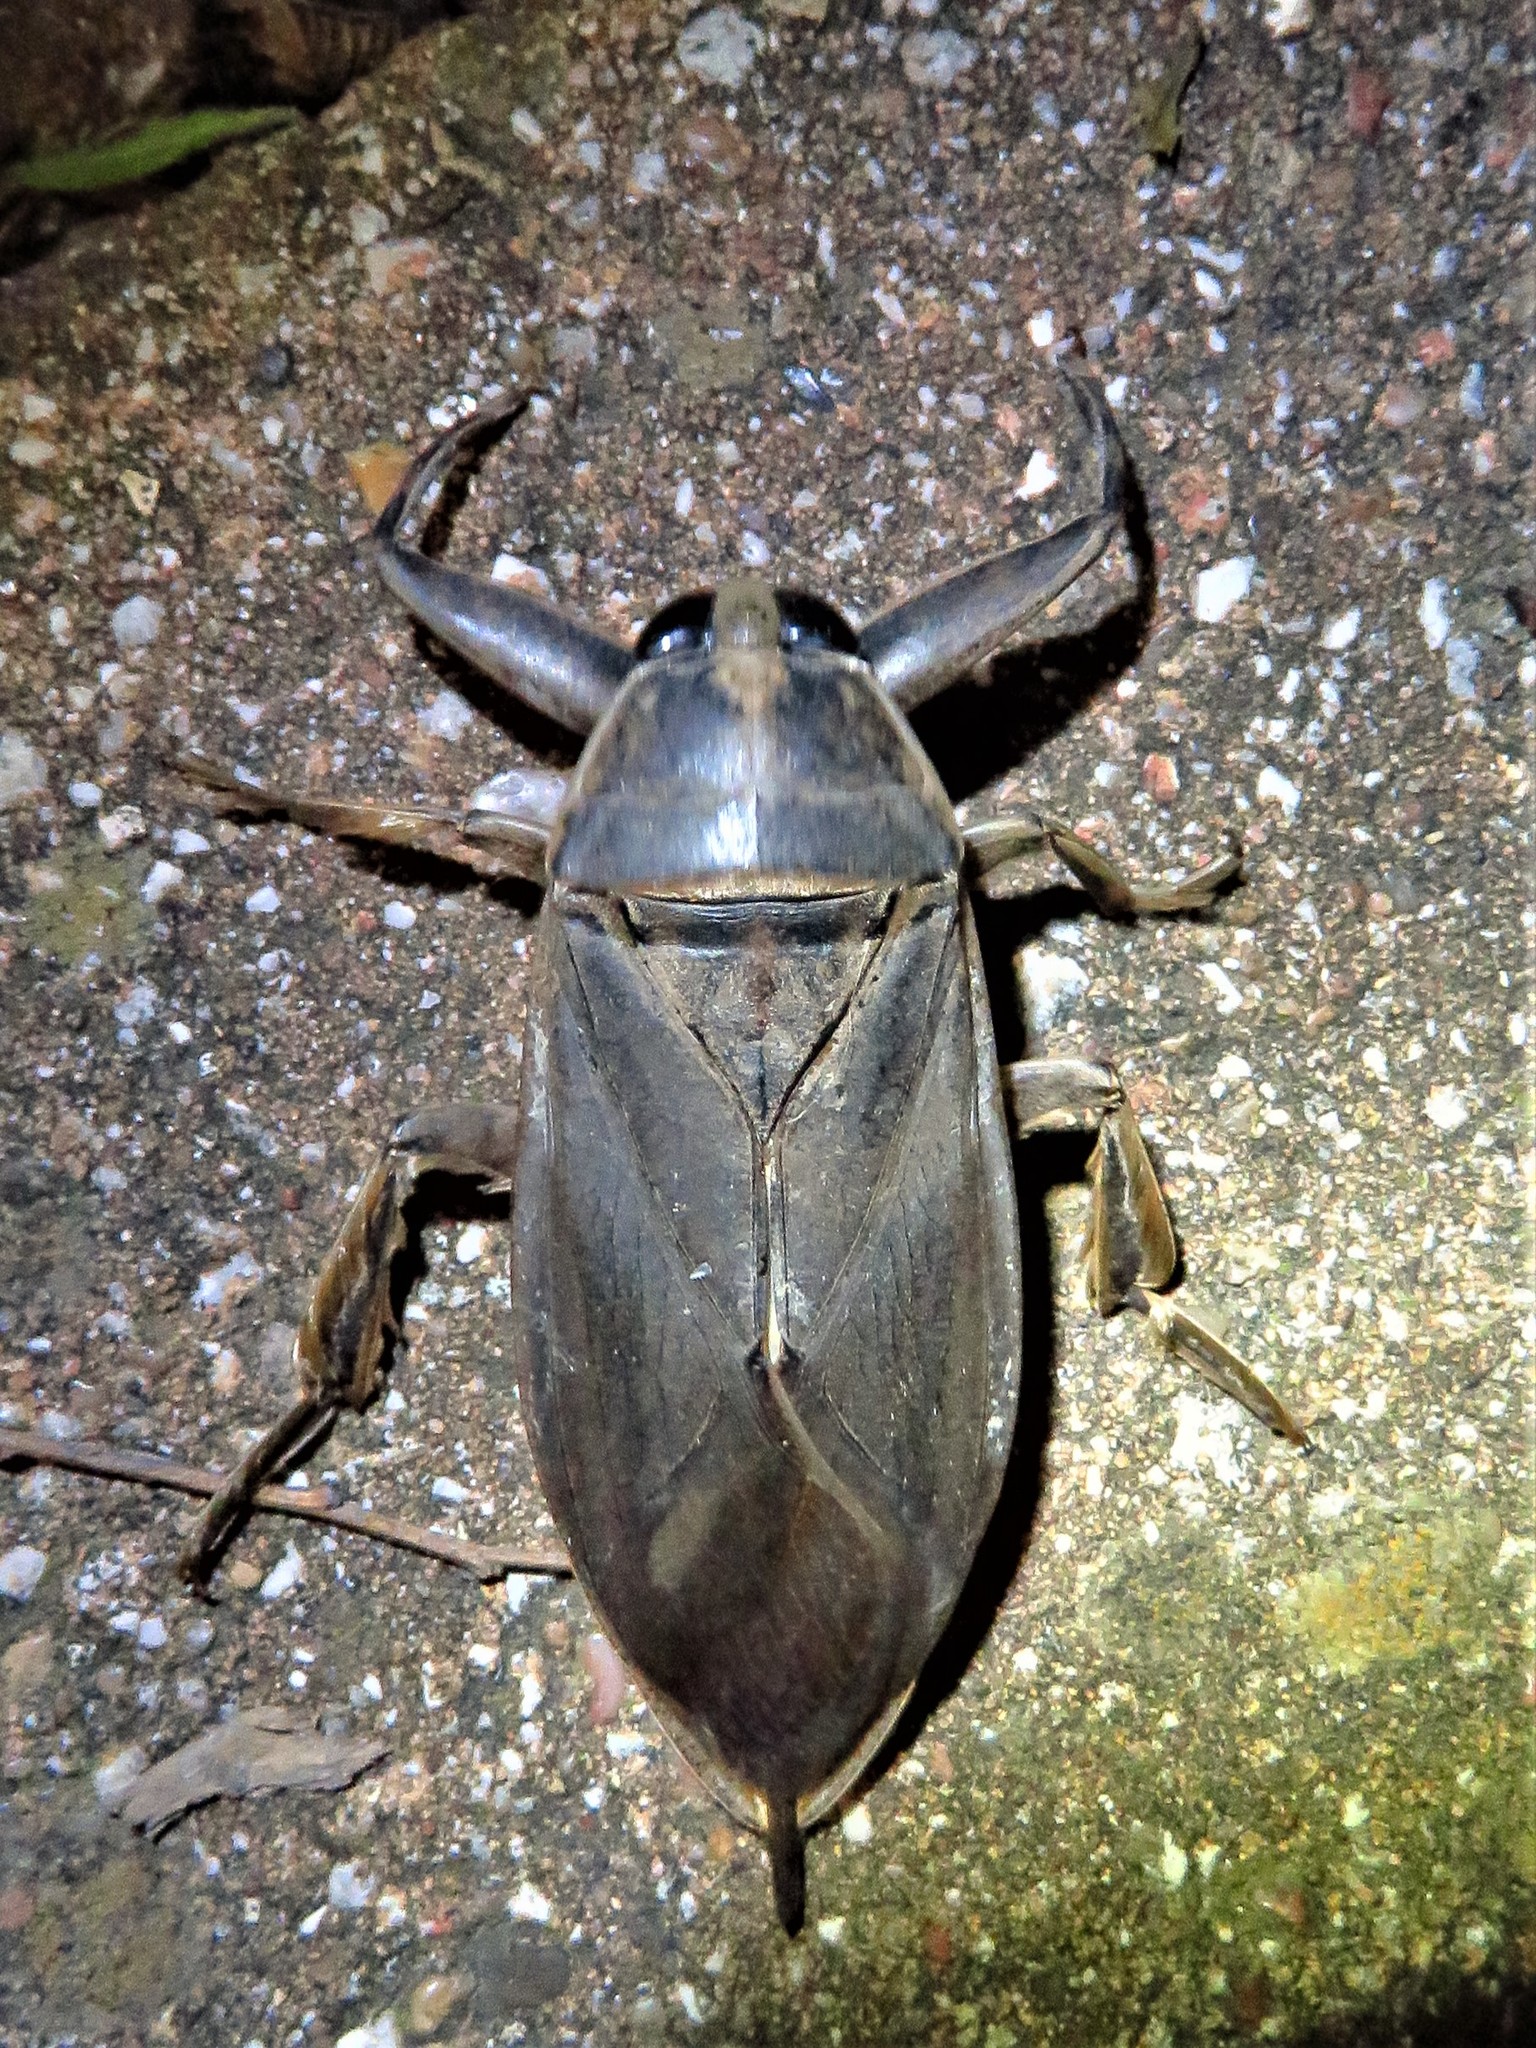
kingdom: Animalia
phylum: Arthropoda
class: Insecta
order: Hemiptera
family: Belostomatidae
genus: Benacus
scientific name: Benacus griseus
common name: Eastern toe-biter
